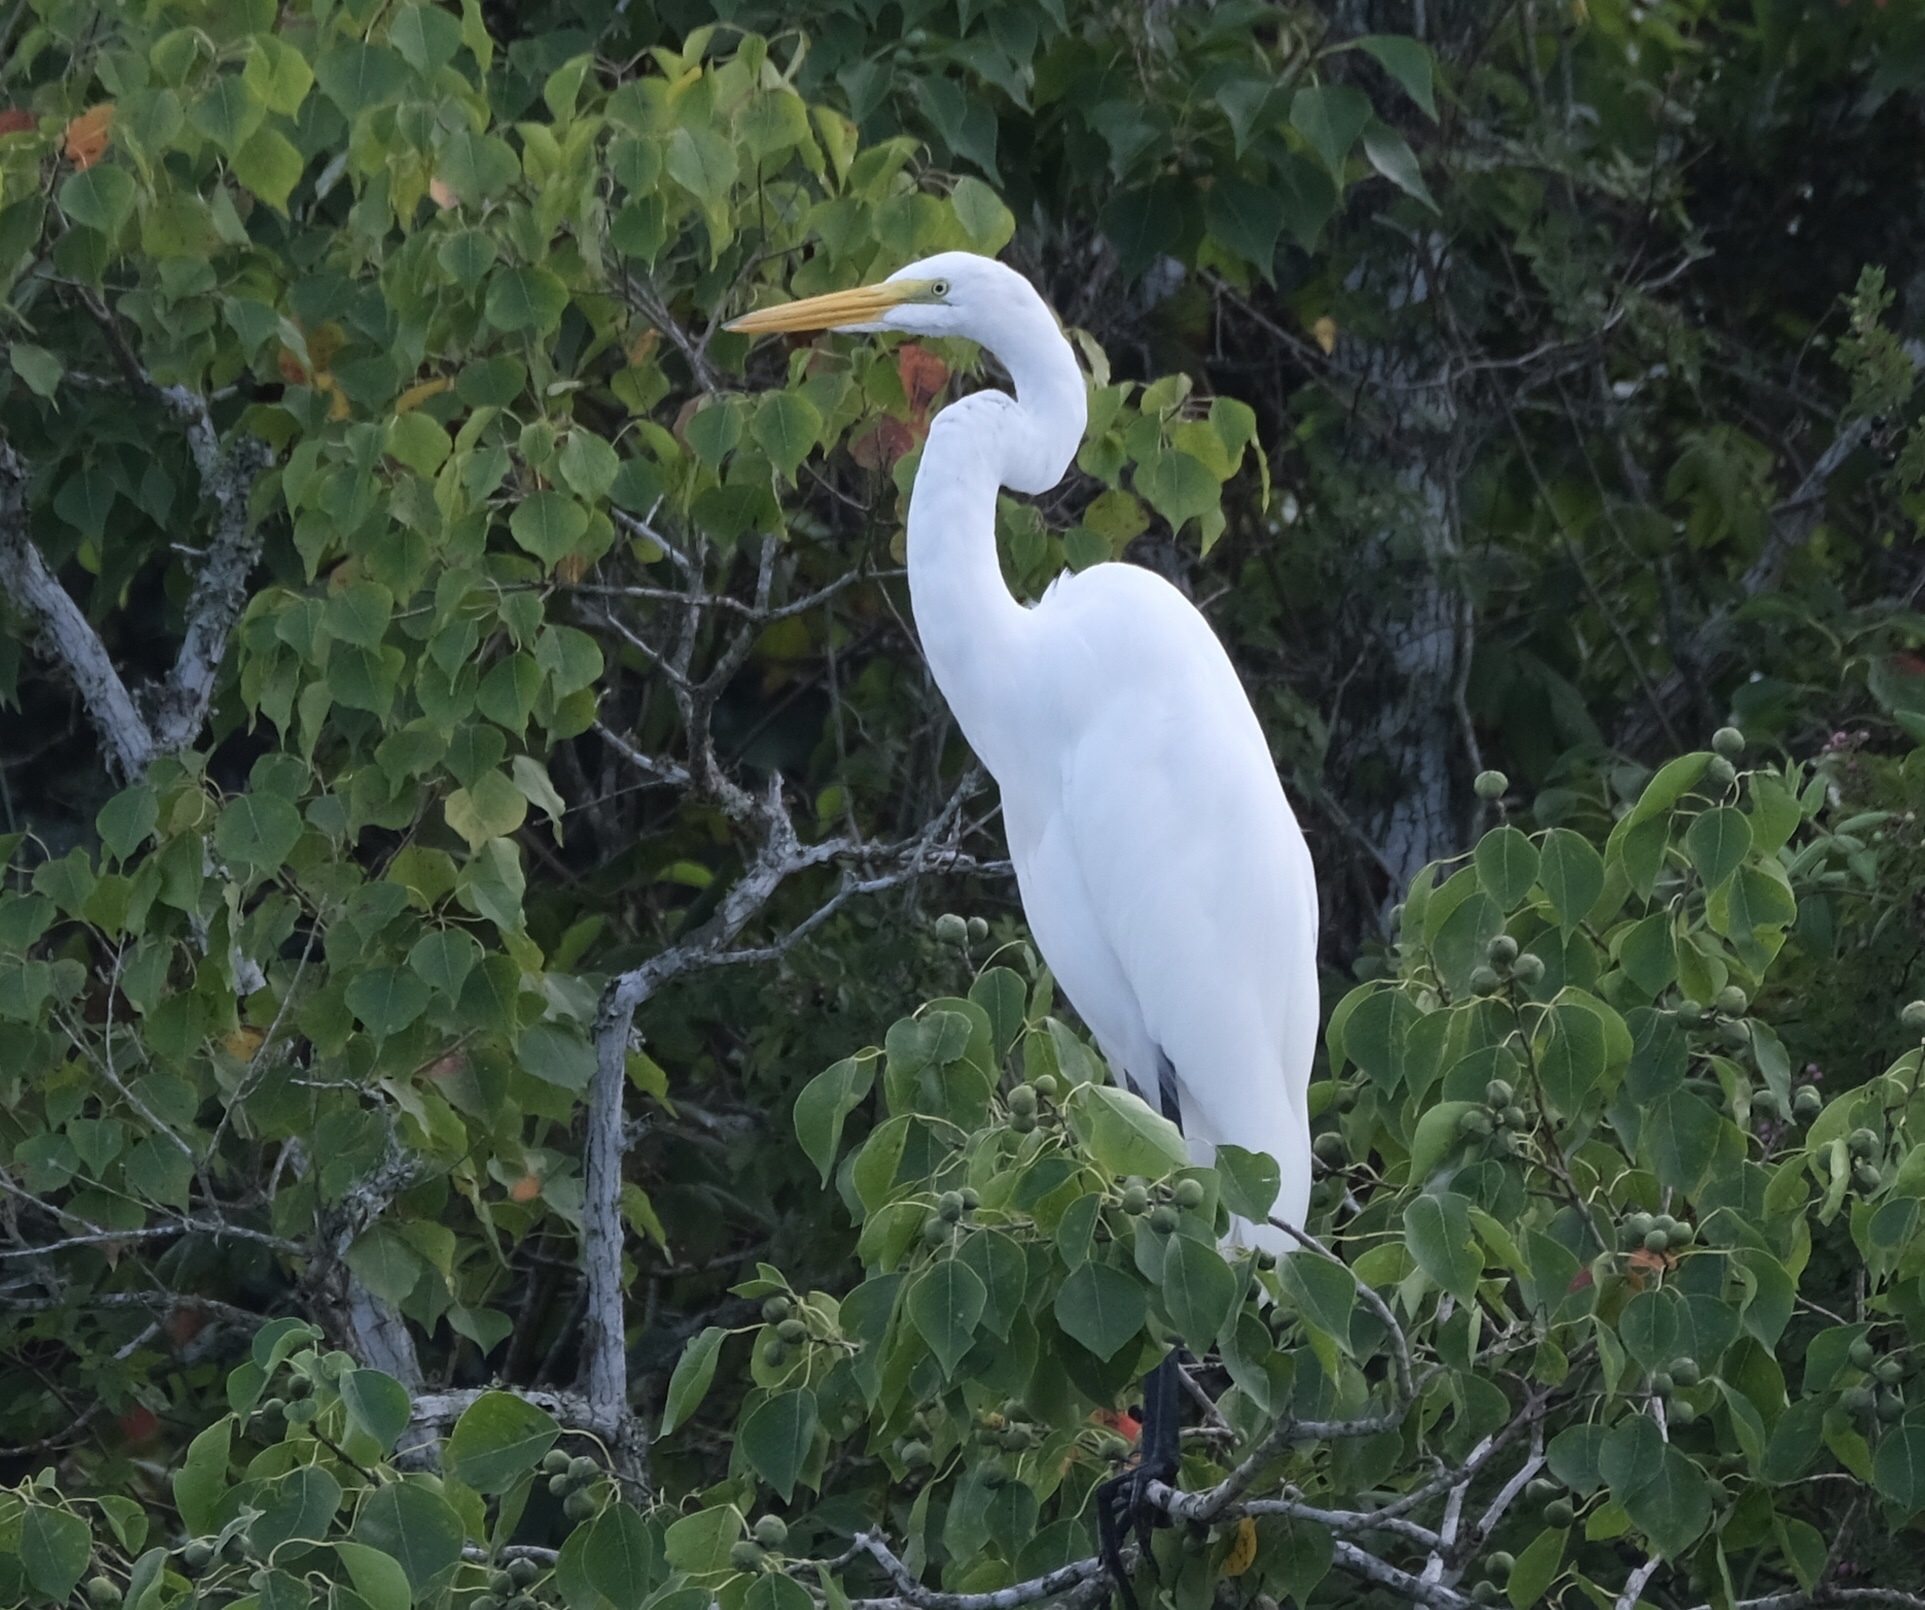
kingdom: Animalia
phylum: Chordata
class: Aves
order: Pelecaniformes
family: Ardeidae
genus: Ardea
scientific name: Ardea alba
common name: Great egret
